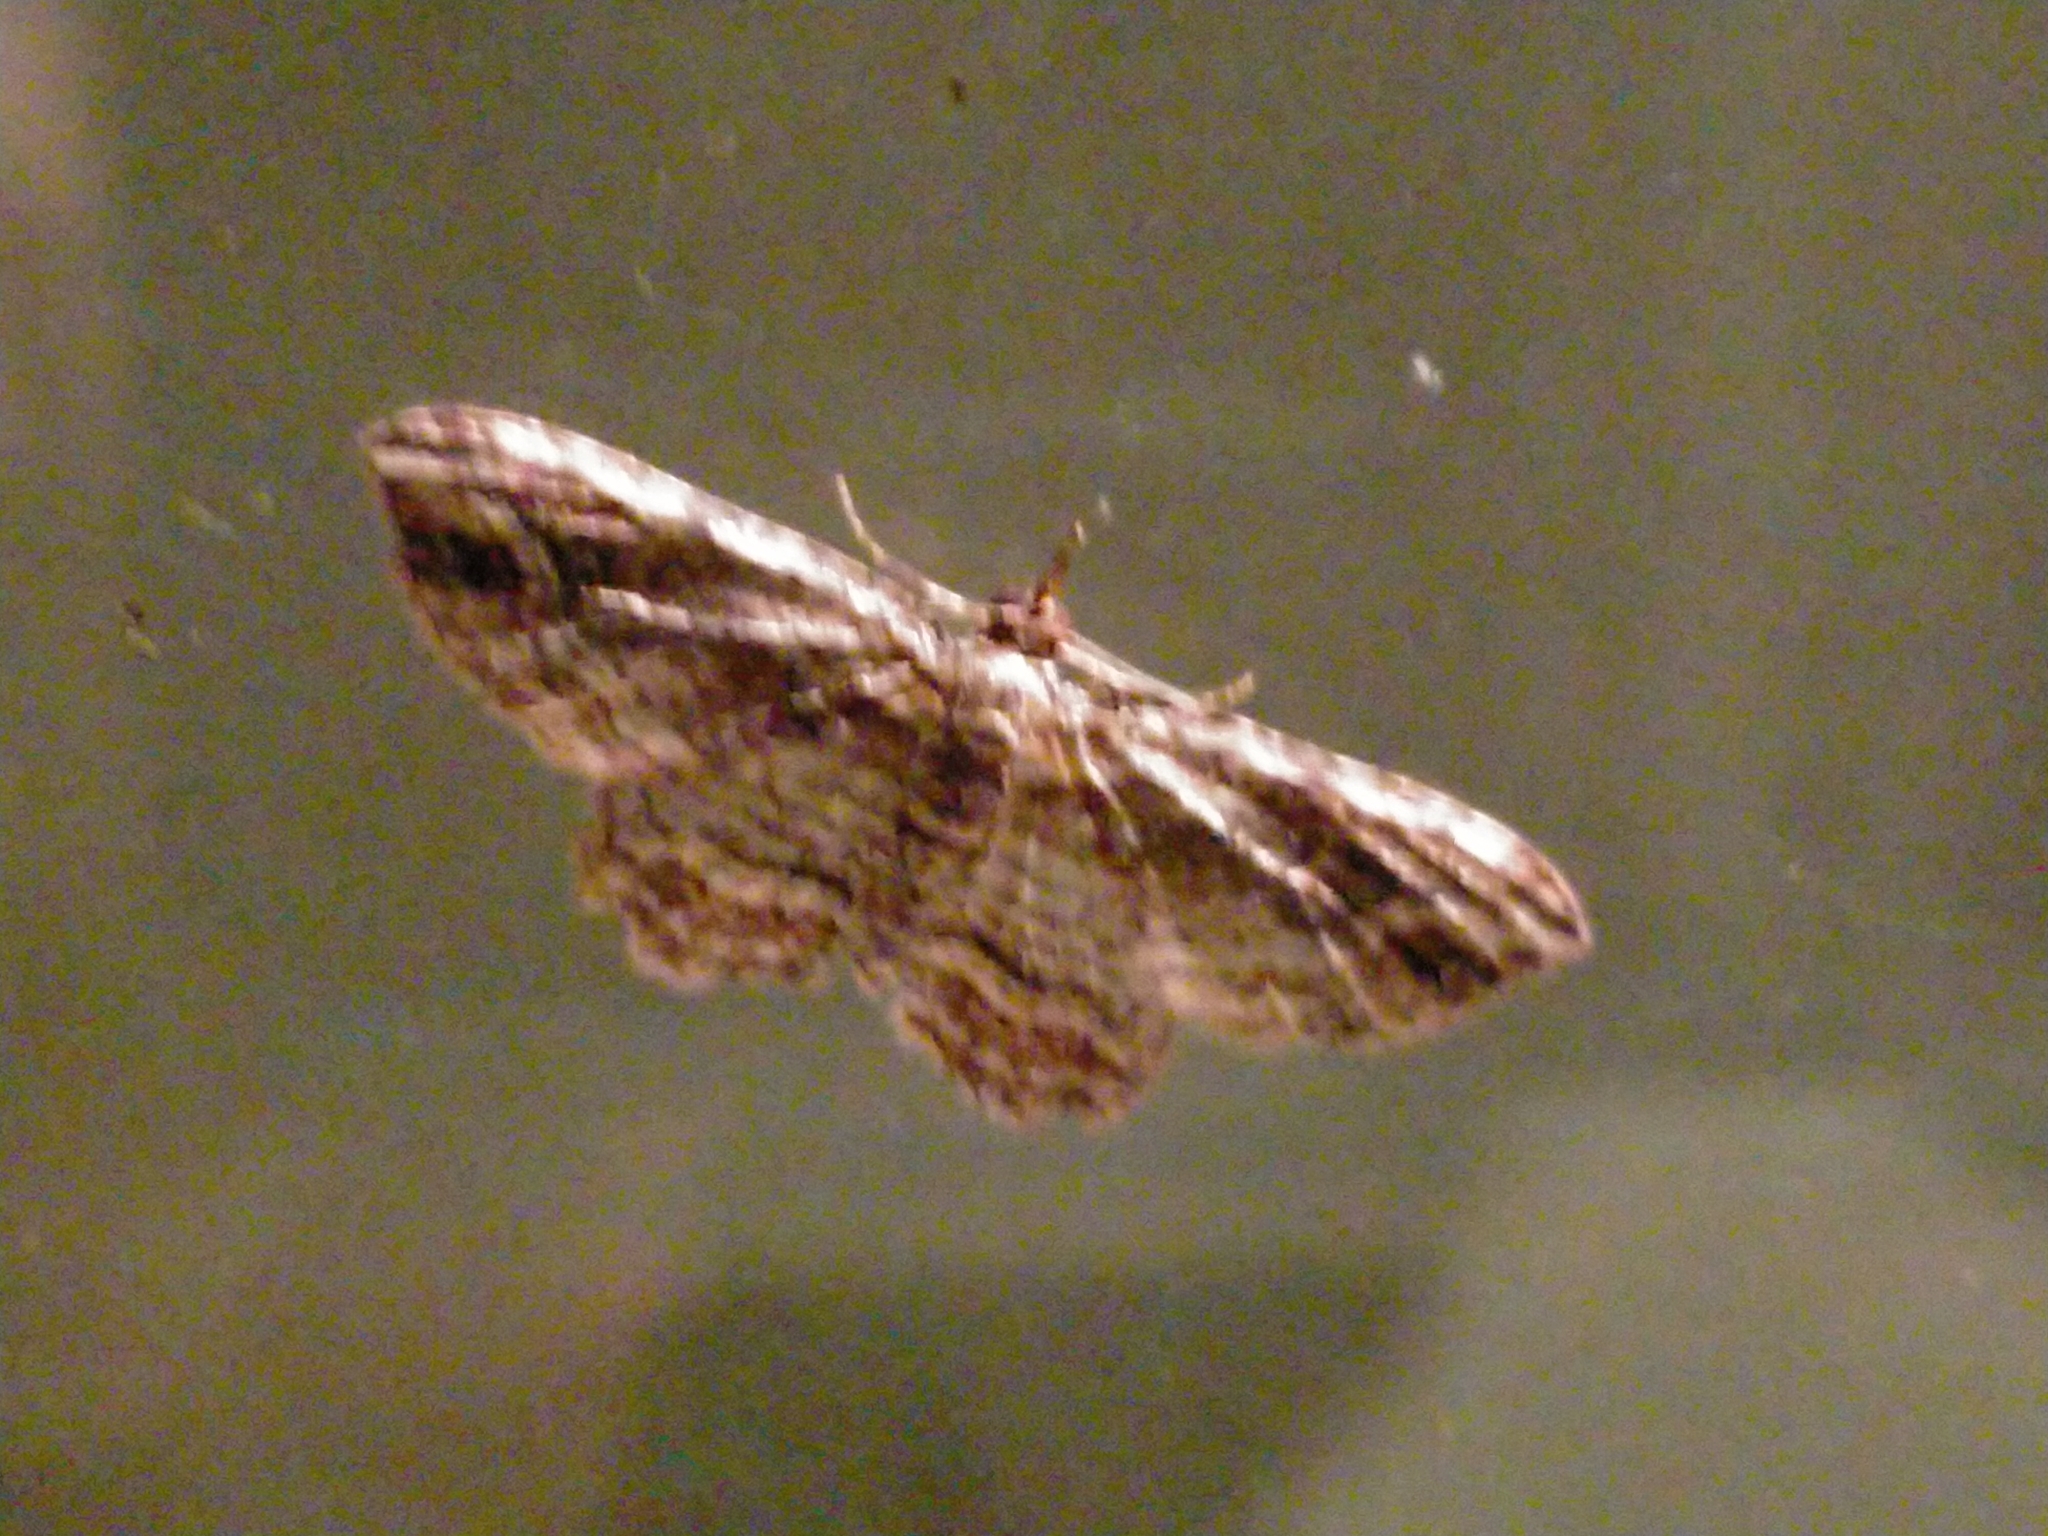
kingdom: Animalia
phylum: Arthropoda
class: Insecta
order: Lepidoptera
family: Geometridae
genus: Chloroclystis
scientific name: Chloroclystis filata
